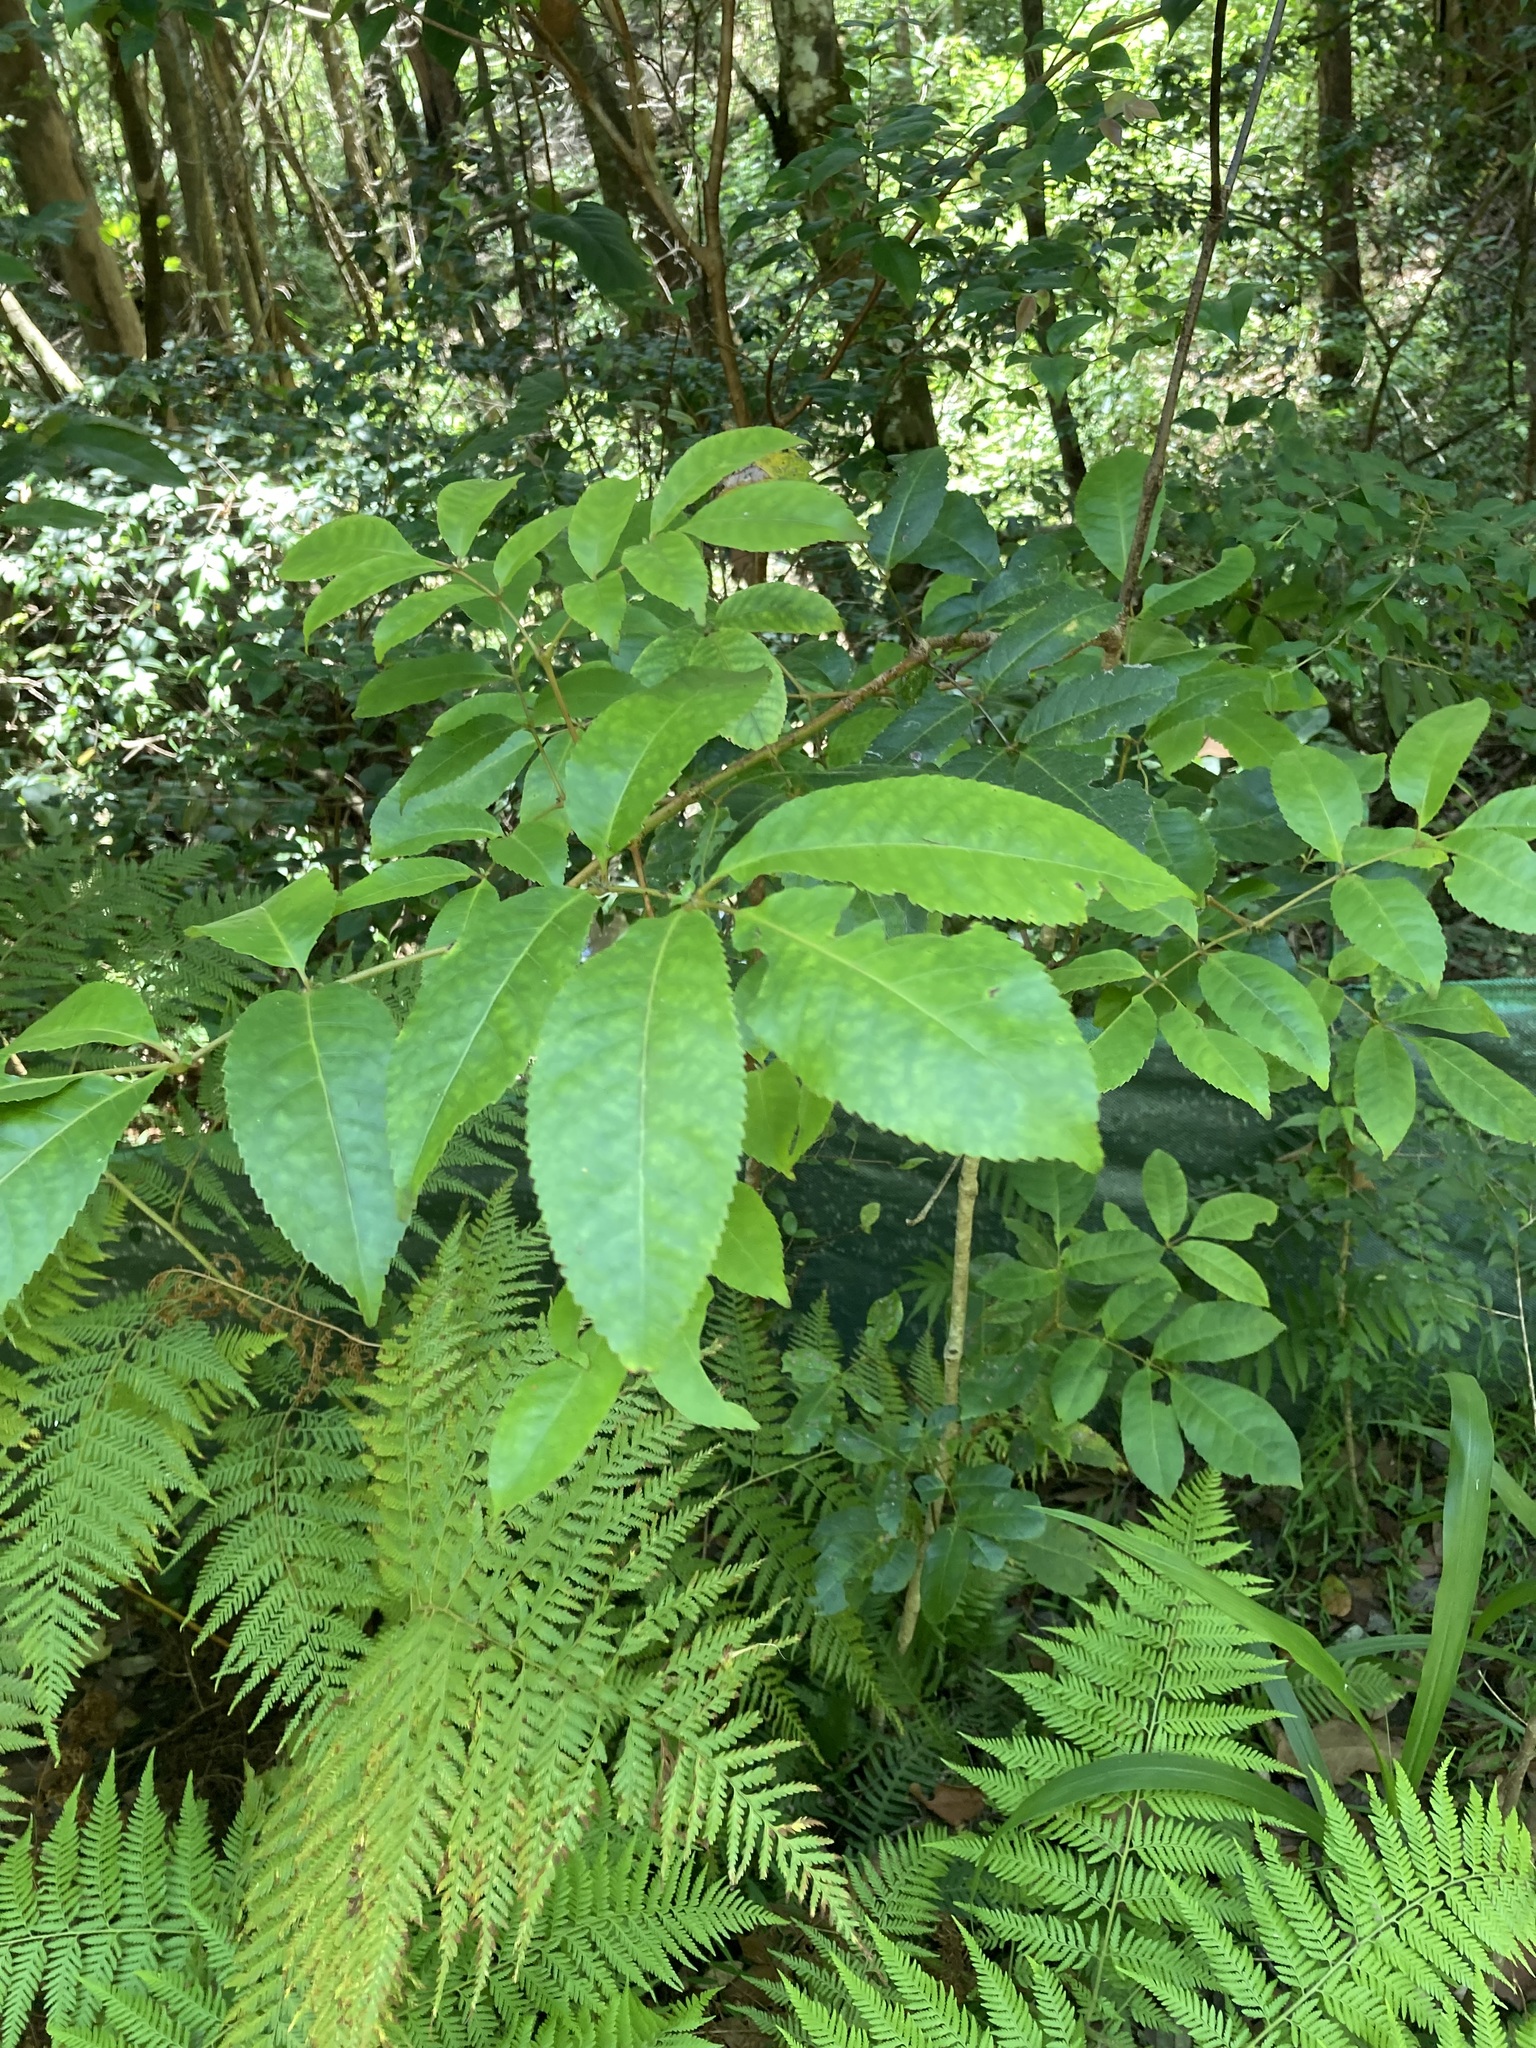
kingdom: Plantae
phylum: Tracheophyta
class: Magnoliopsida
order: Oxalidales
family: Cunoniaceae
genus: Ackama
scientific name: Ackama paniculosa
